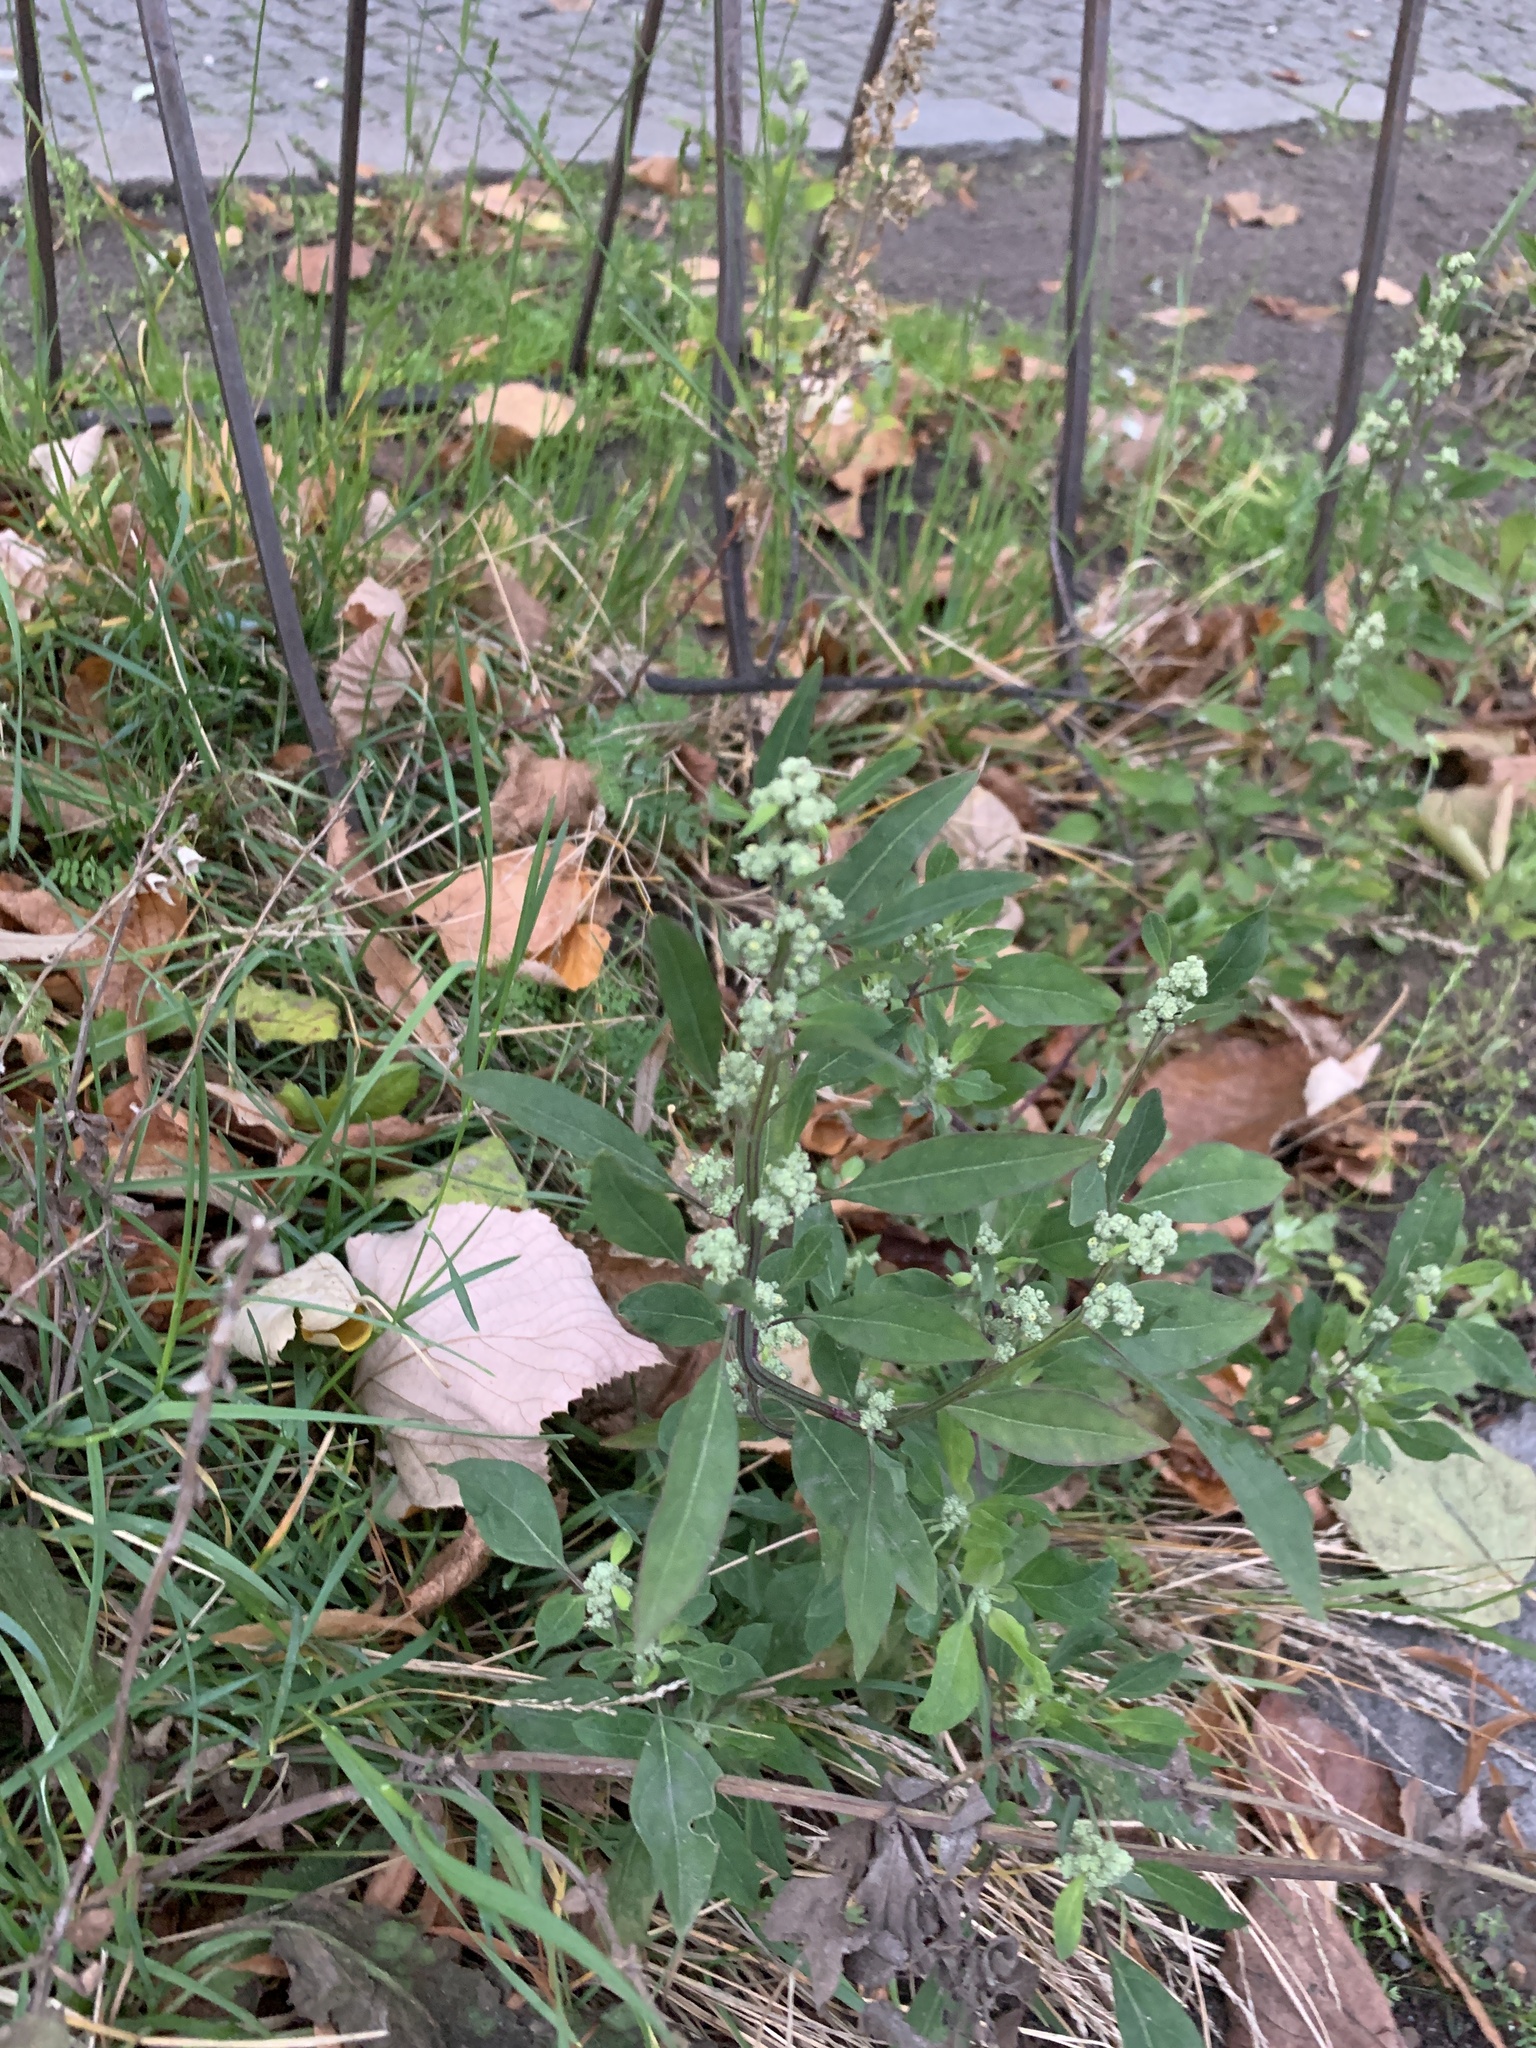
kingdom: Plantae
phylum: Tracheophyta
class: Magnoliopsida
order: Caryophyllales
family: Amaranthaceae
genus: Chenopodium
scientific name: Chenopodium album
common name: Fat-hen
